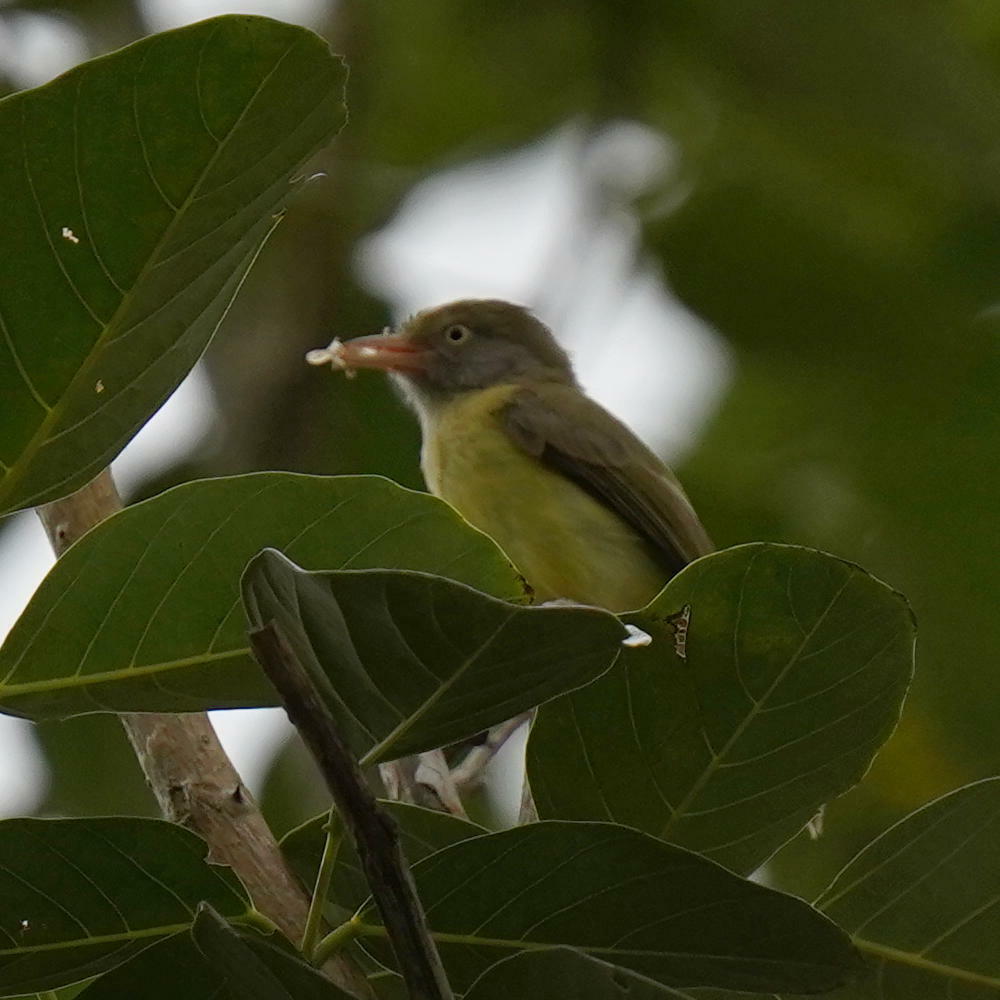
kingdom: Animalia
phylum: Chordata
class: Aves
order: Passeriformes
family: Vireonidae
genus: Hylophilus
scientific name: Hylophilus flavipes
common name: Scrub greenlet
